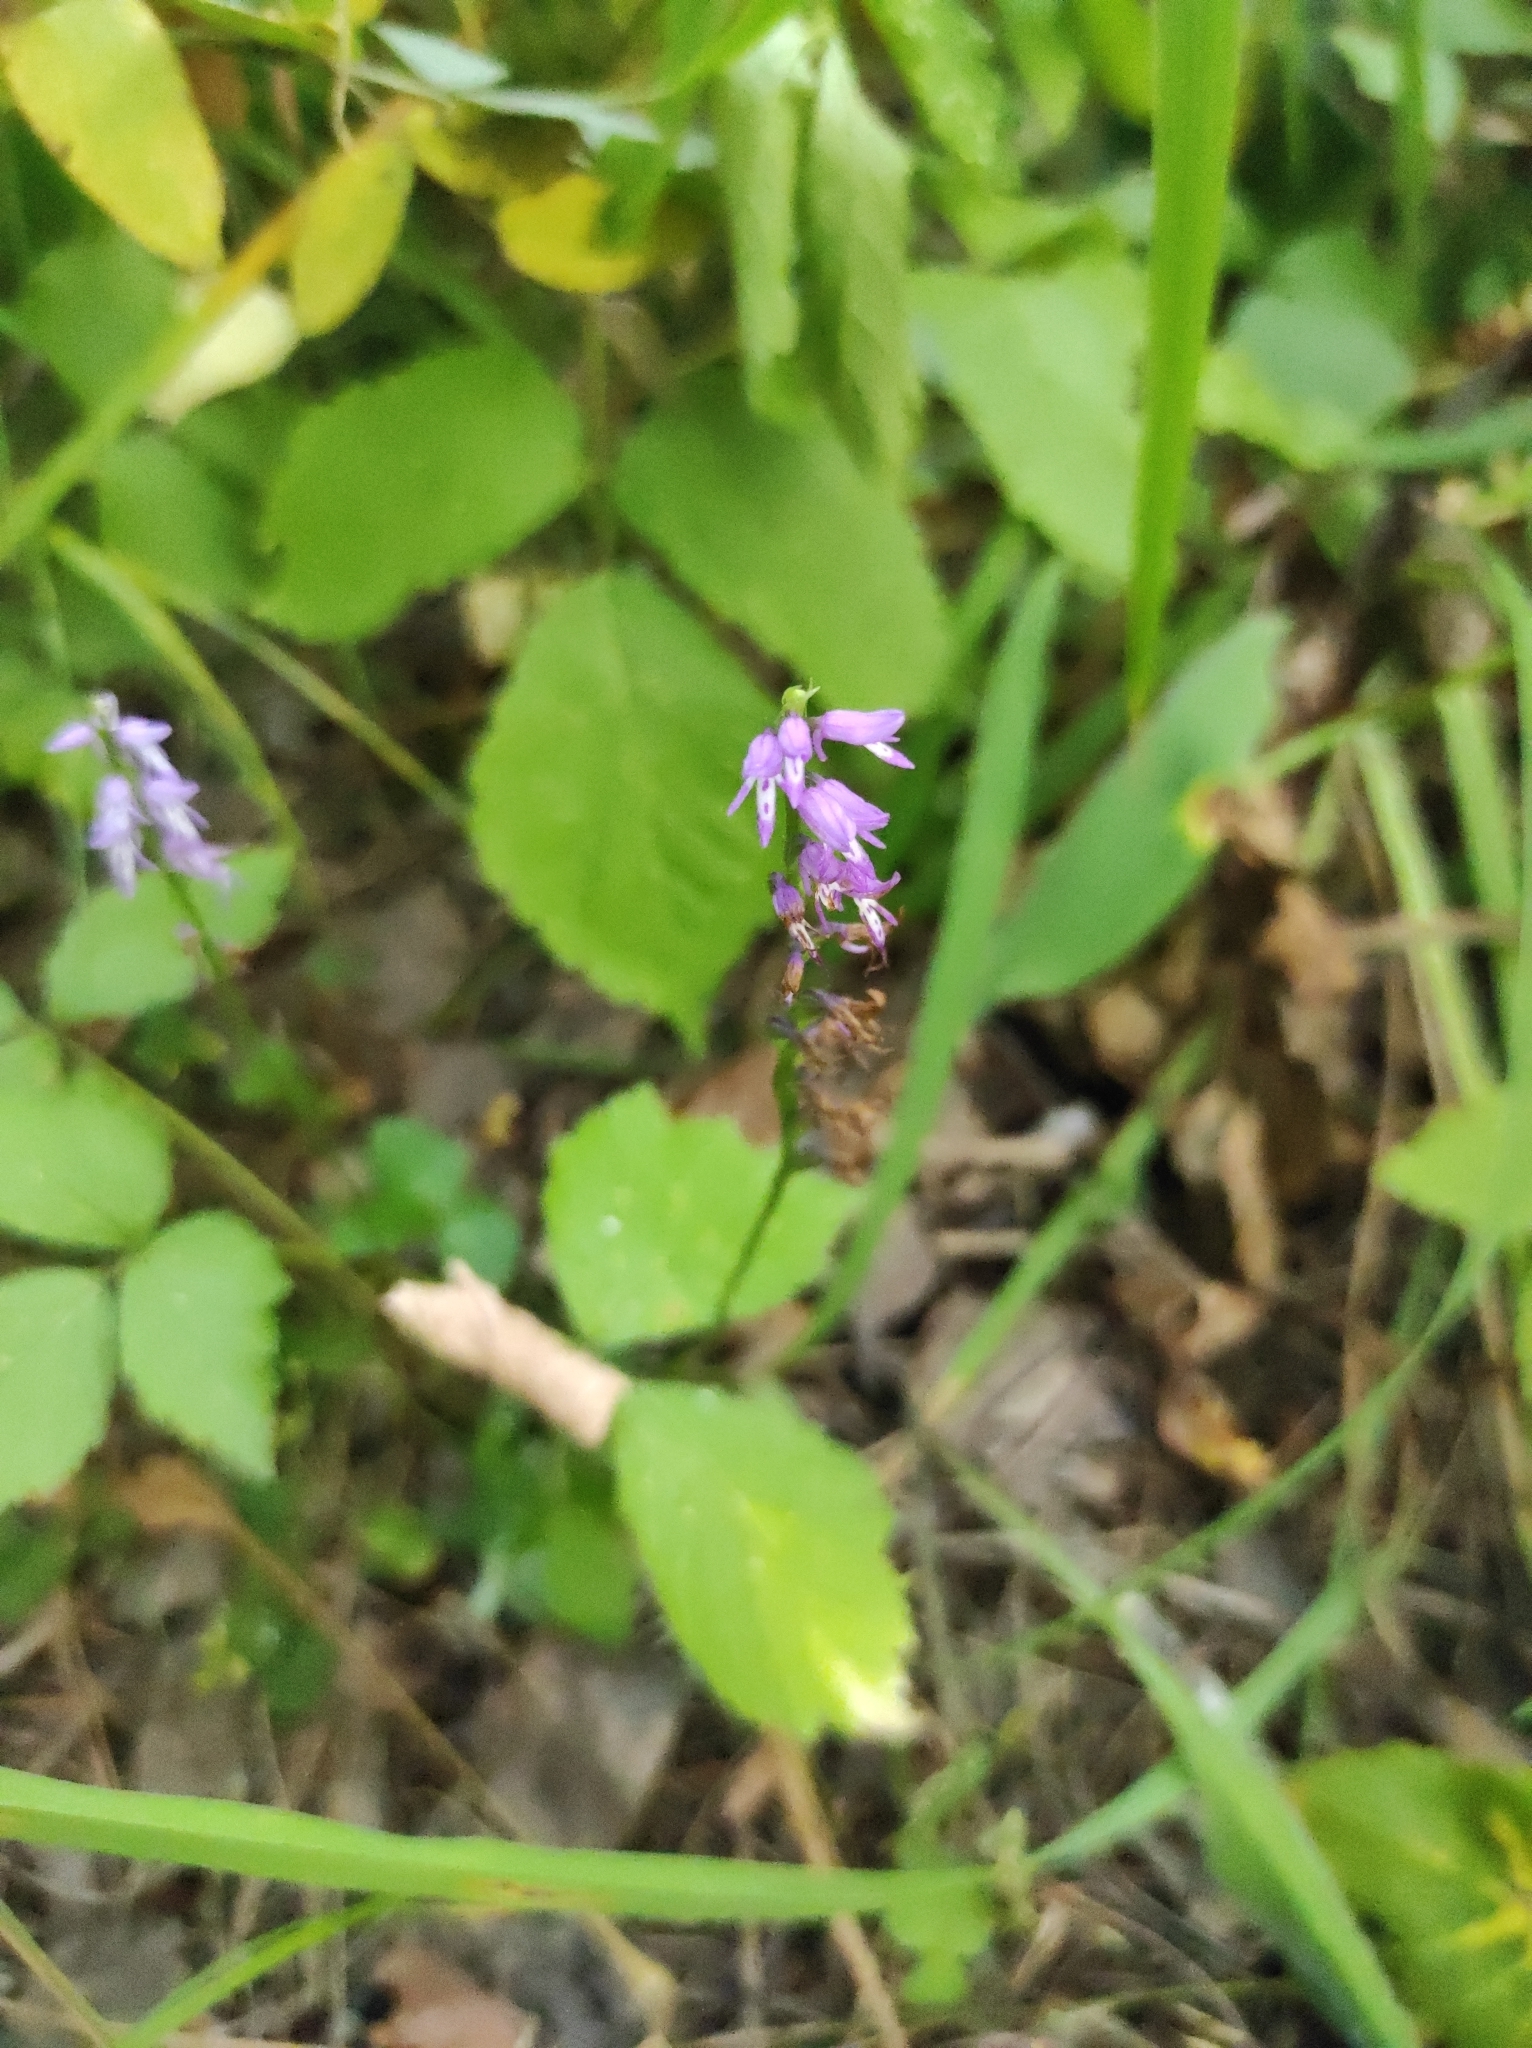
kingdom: Plantae
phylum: Tracheophyta
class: Liliopsida
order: Asparagales
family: Orchidaceae
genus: Hemipilia
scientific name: Hemipilia cucullata
